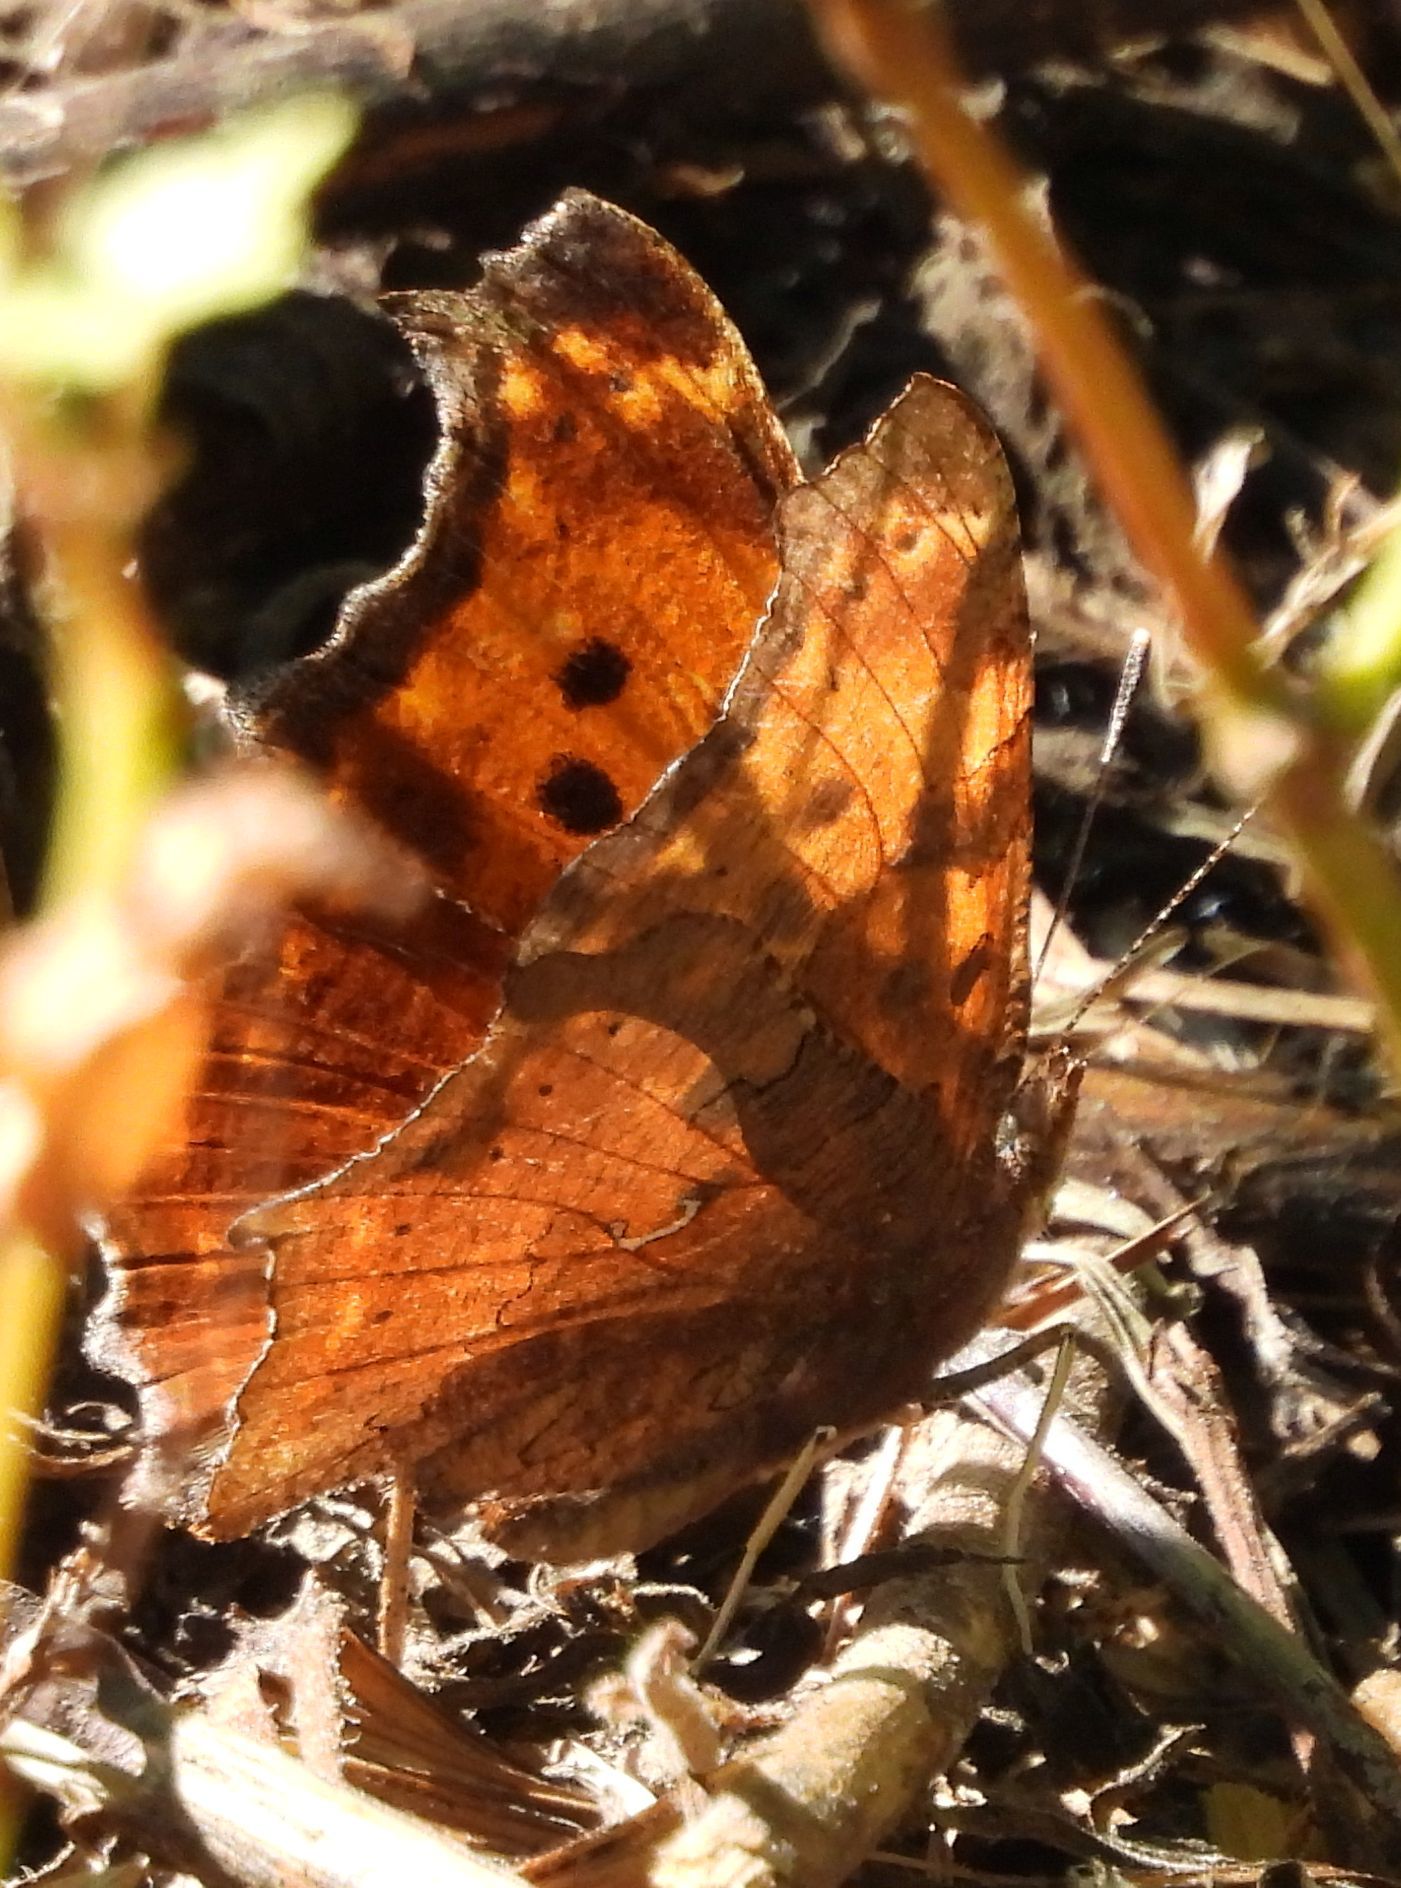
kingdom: Animalia
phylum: Arthropoda
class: Insecta
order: Lepidoptera
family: Nymphalidae
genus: Polygonia
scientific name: Polygonia comma
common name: Eastern comma
